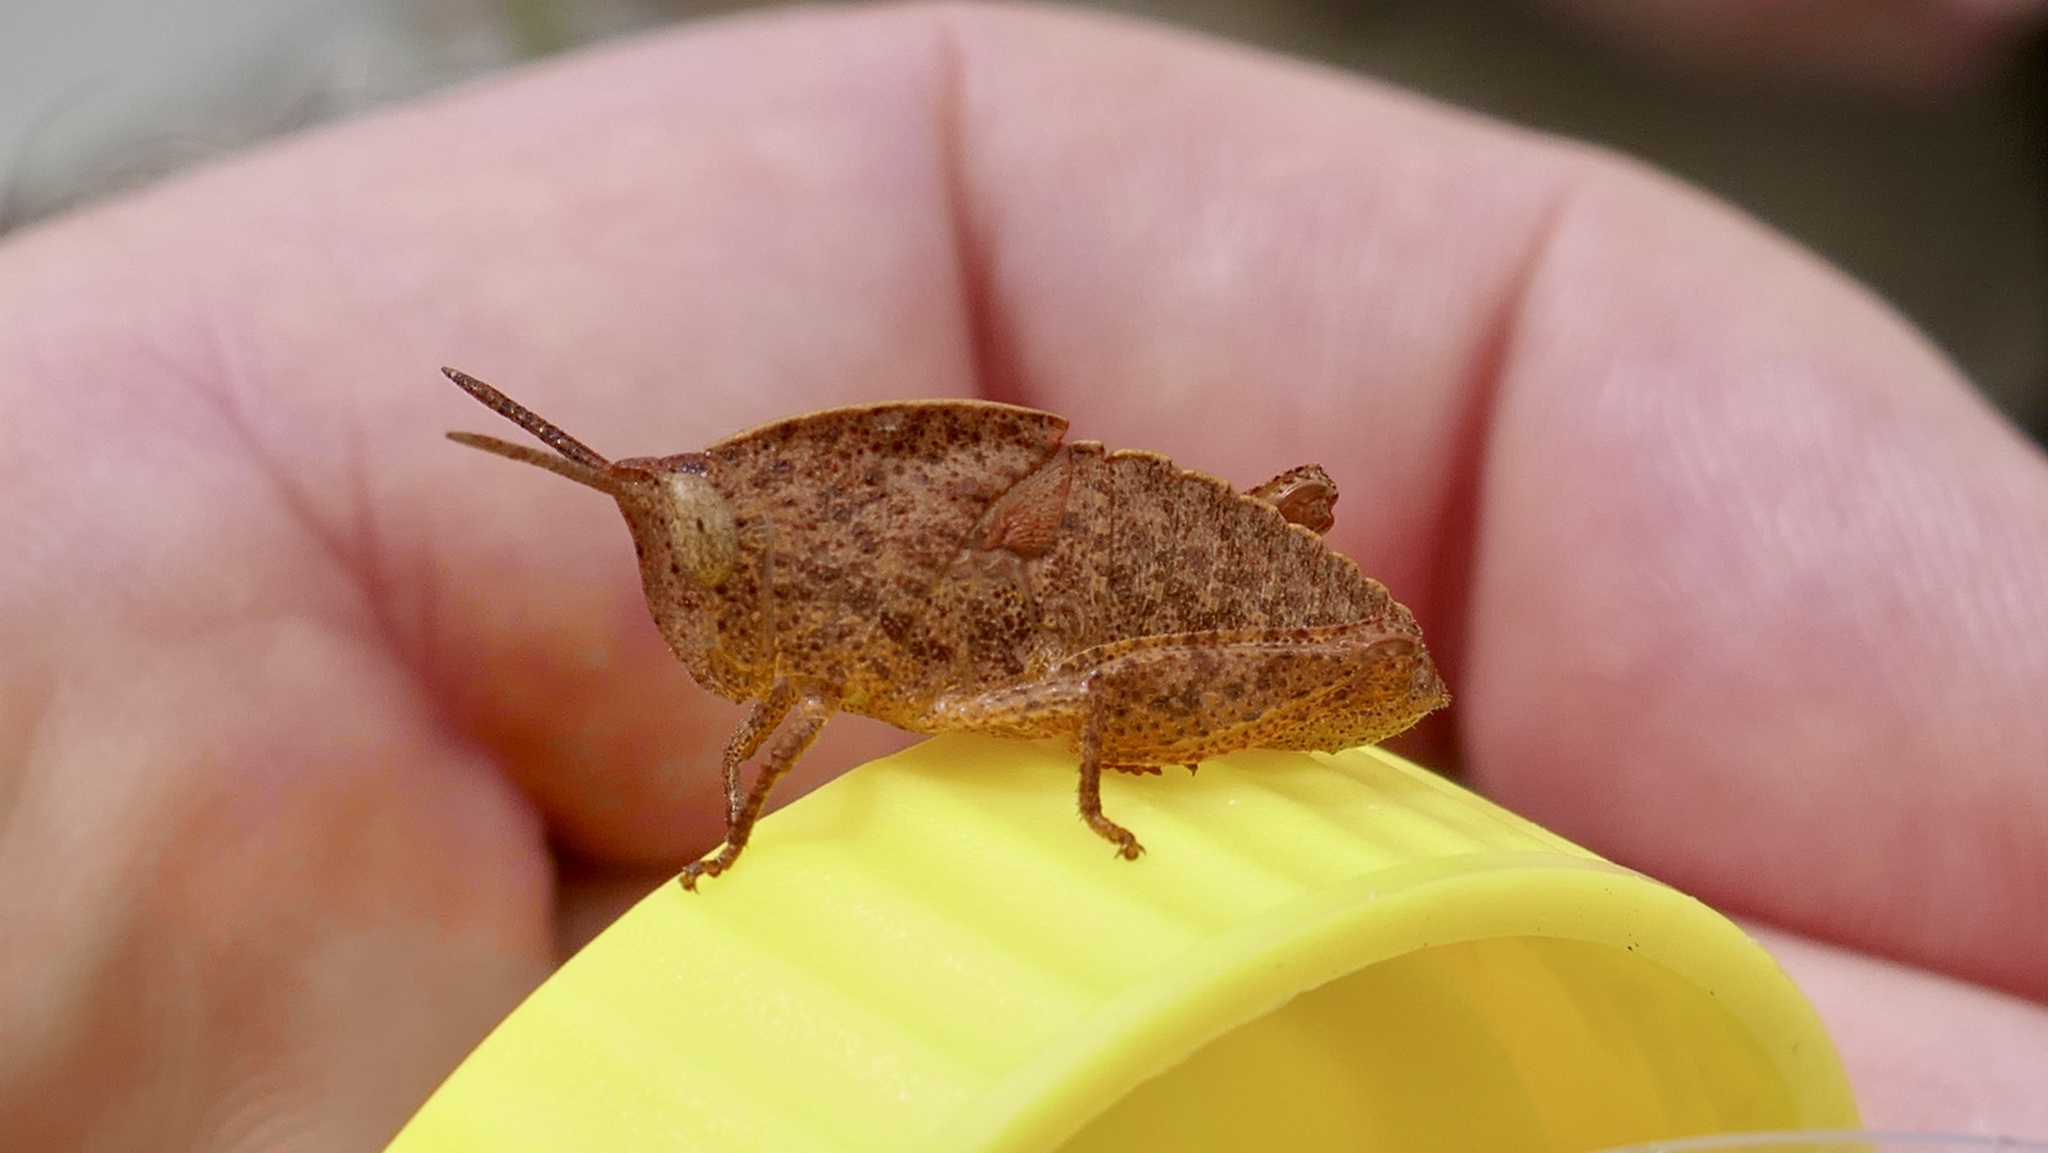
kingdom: Animalia
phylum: Arthropoda
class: Insecta
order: Orthoptera
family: Acrididae
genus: Goniaea
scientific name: Goniaea australasiae
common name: Gumleaf grasshopper
